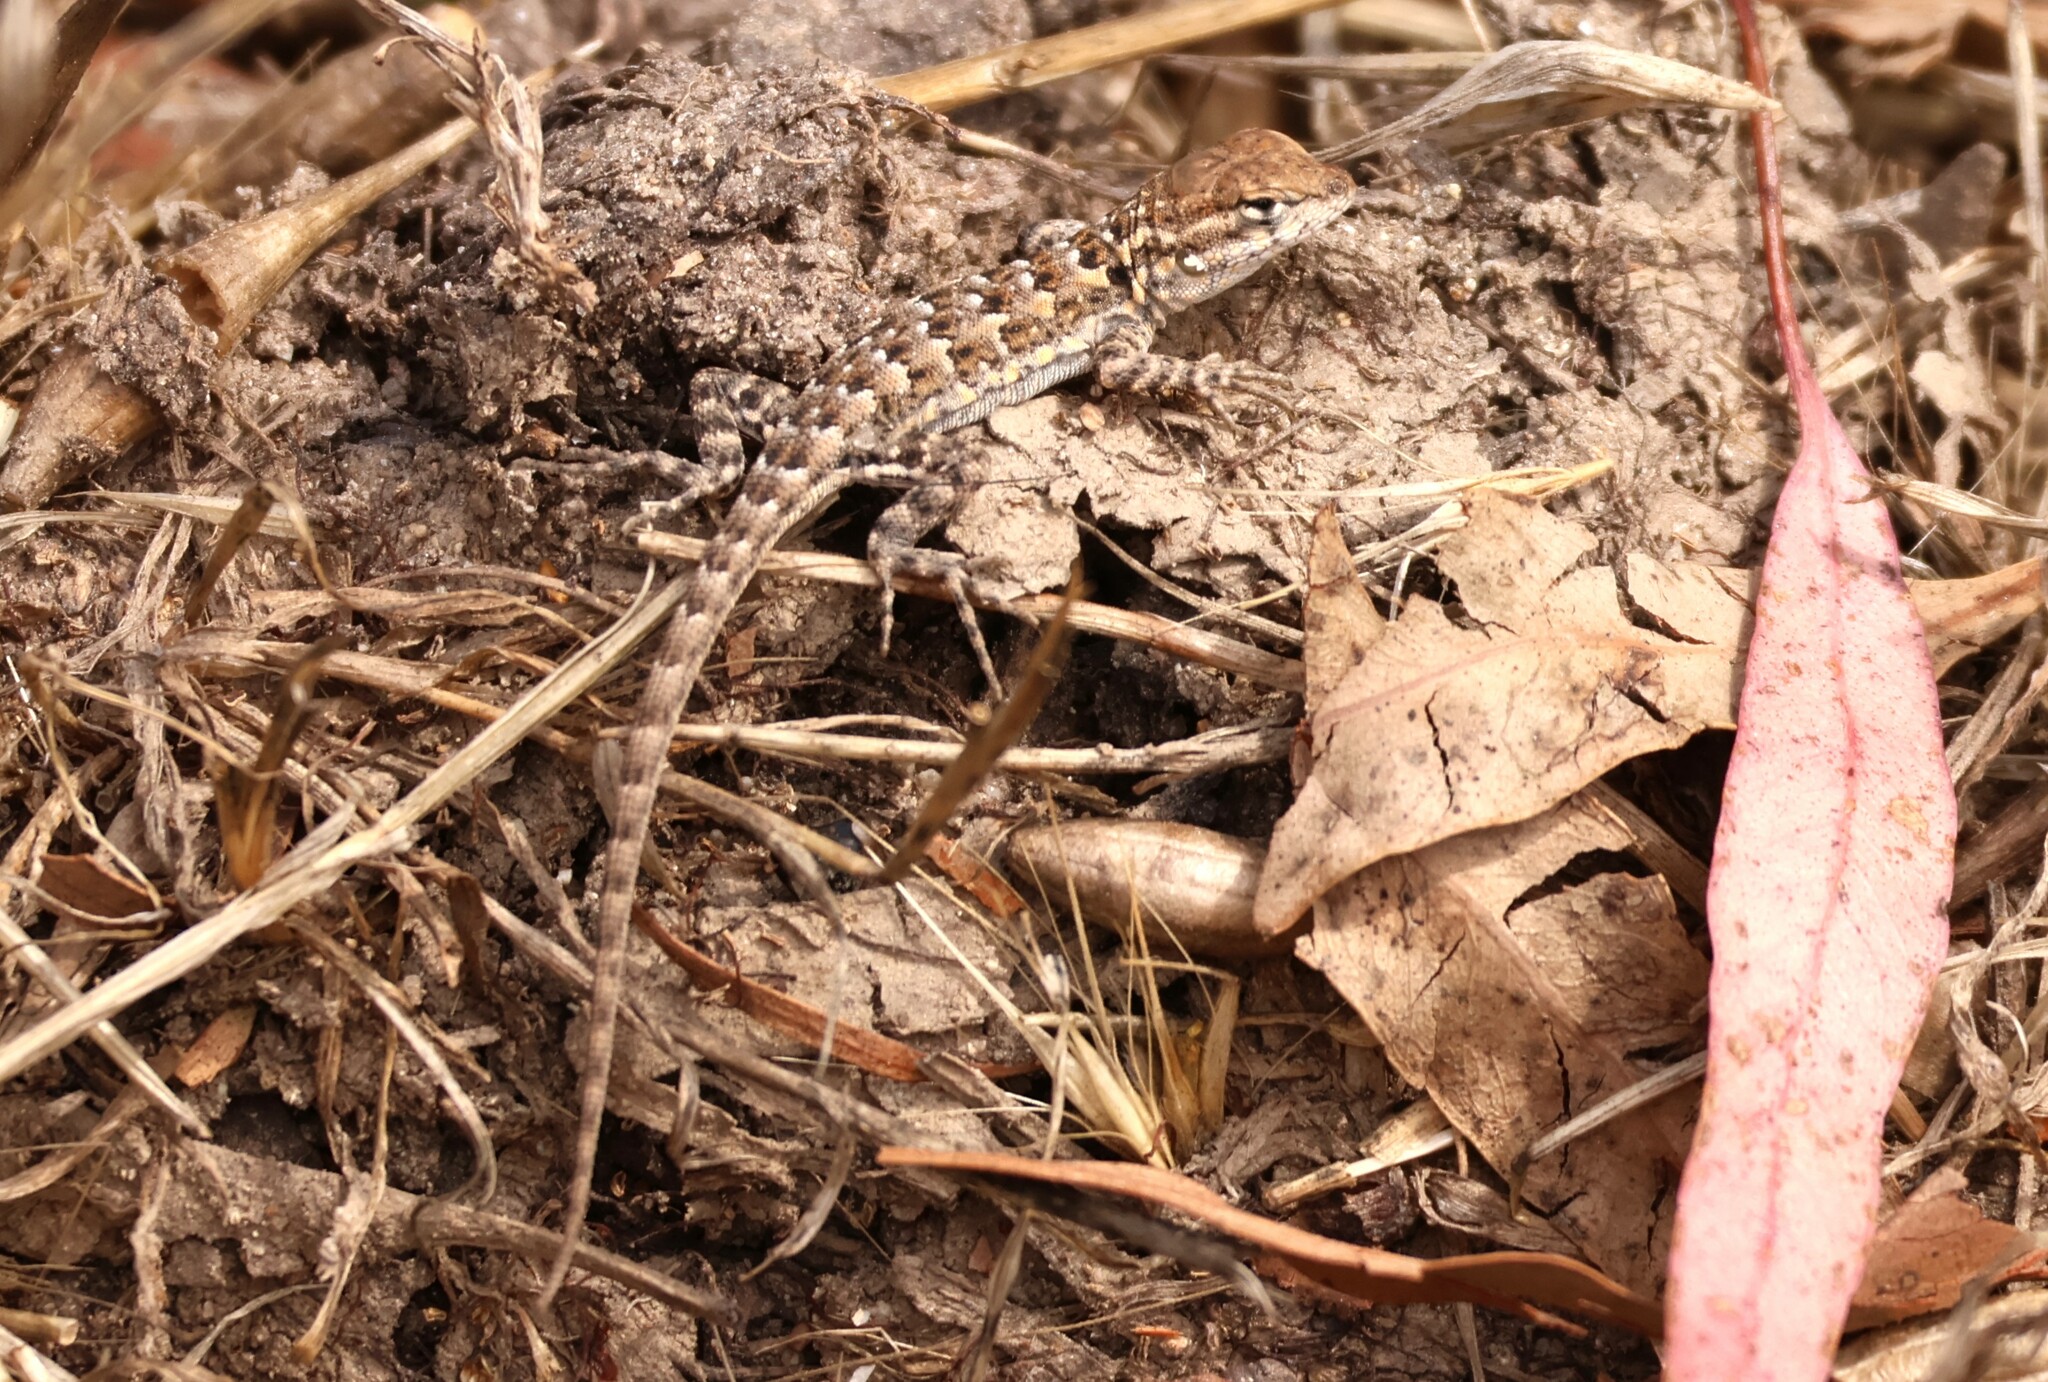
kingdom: Animalia
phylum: Chordata
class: Squamata
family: Phrynosomatidae
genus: Uta
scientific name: Uta stansburiana
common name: Side-blotched lizard
